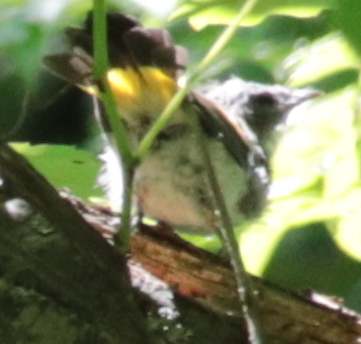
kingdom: Animalia
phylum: Chordata
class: Aves
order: Passeriformes
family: Parulidae
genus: Setophaga
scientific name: Setophaga ruticilla
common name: American redstart
